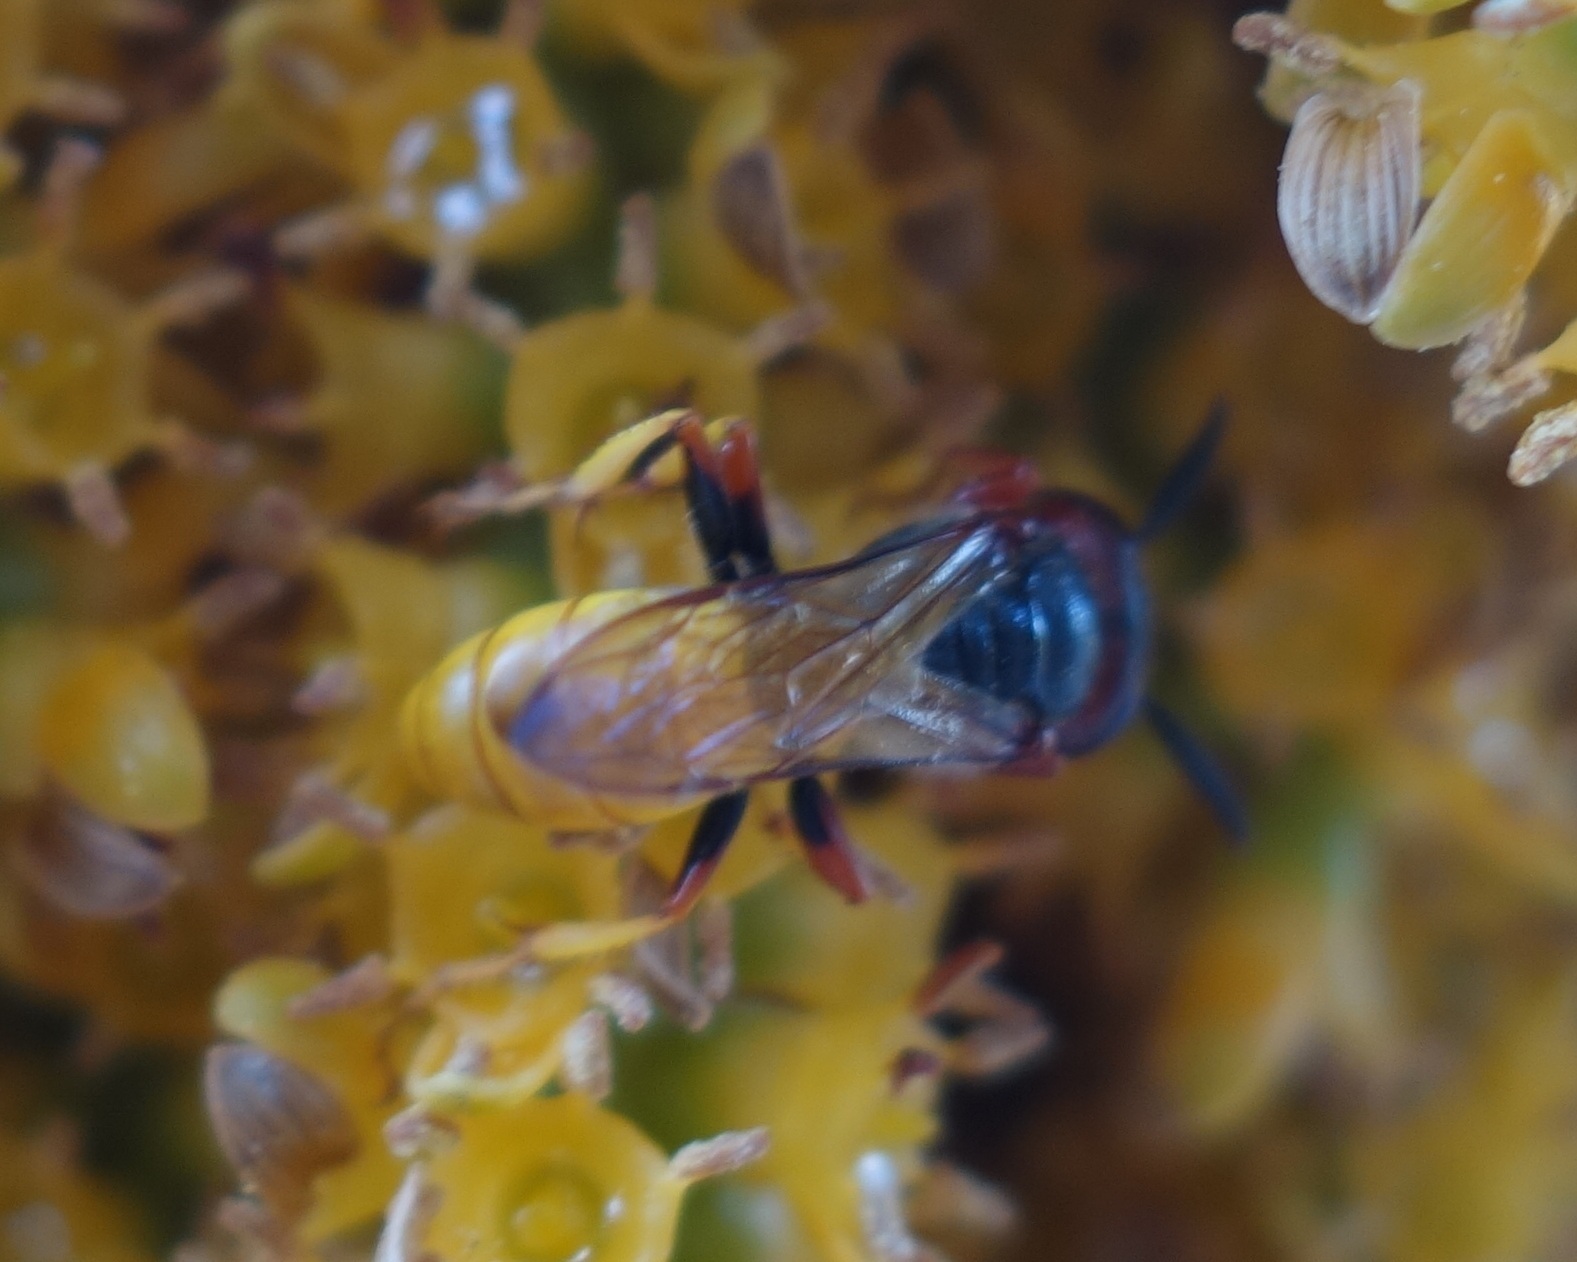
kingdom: Animalia
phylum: Arthropoda
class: Insecta
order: Hymenoptera
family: Crabronidae
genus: Philanthus
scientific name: Philanthus triangulum
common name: Bee wolf
